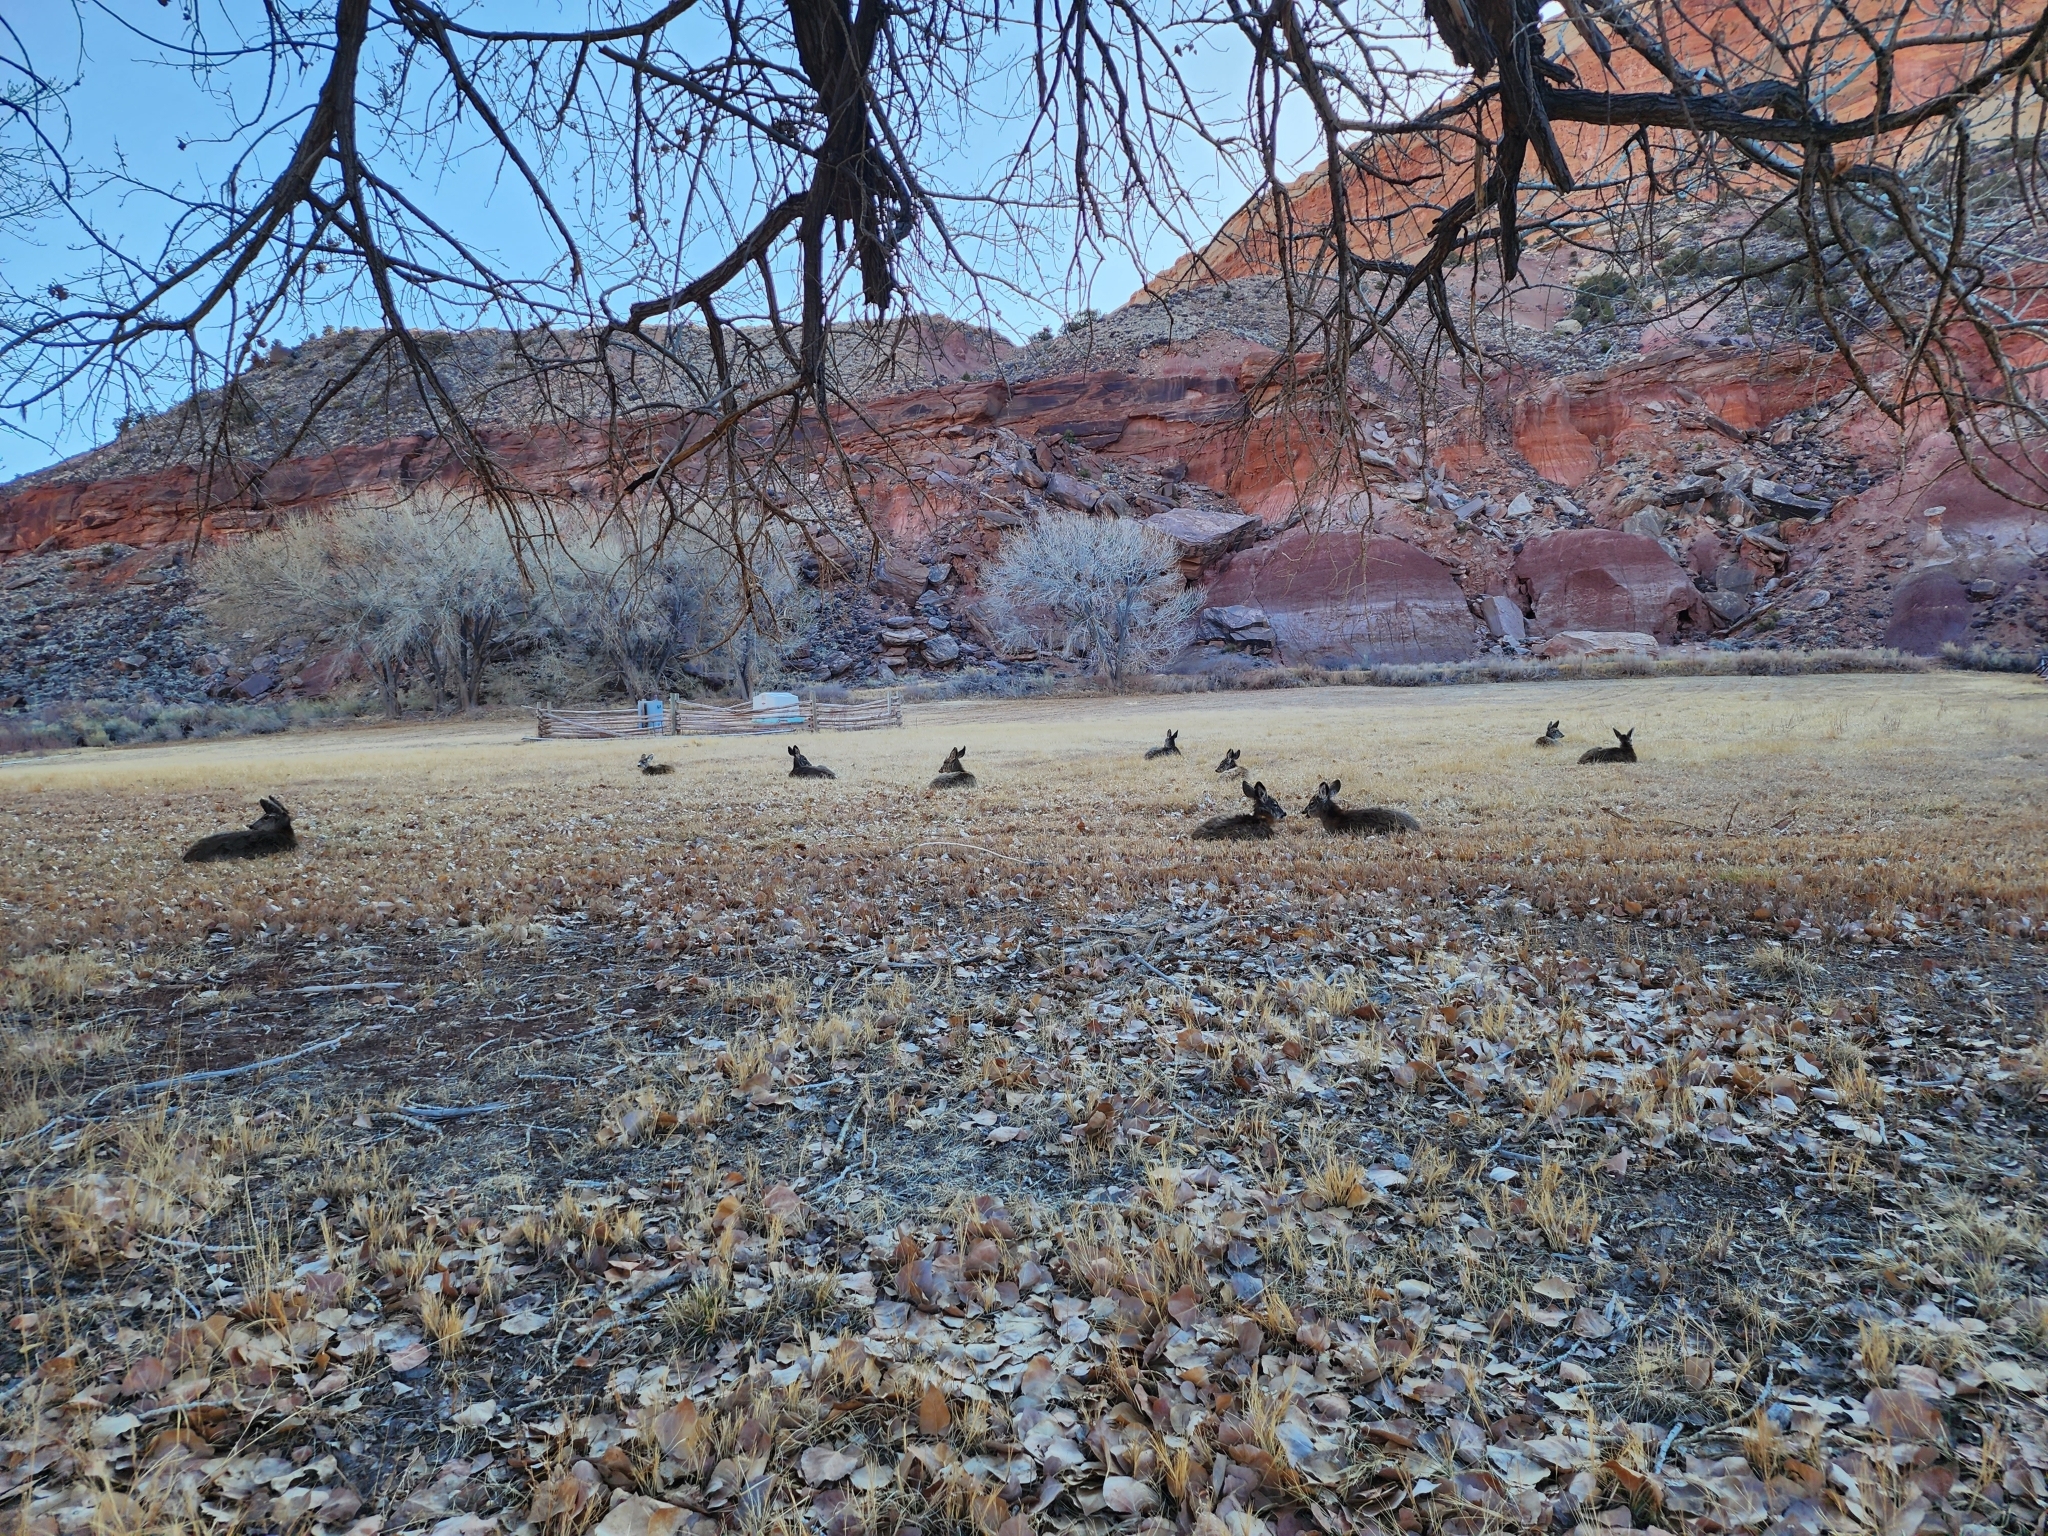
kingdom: Animalia
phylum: Chordata
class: Mammalia
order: Artiodactyla
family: Cervidae
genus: Odocoileus
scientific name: Odocoileus hemionus
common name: Mule deer
